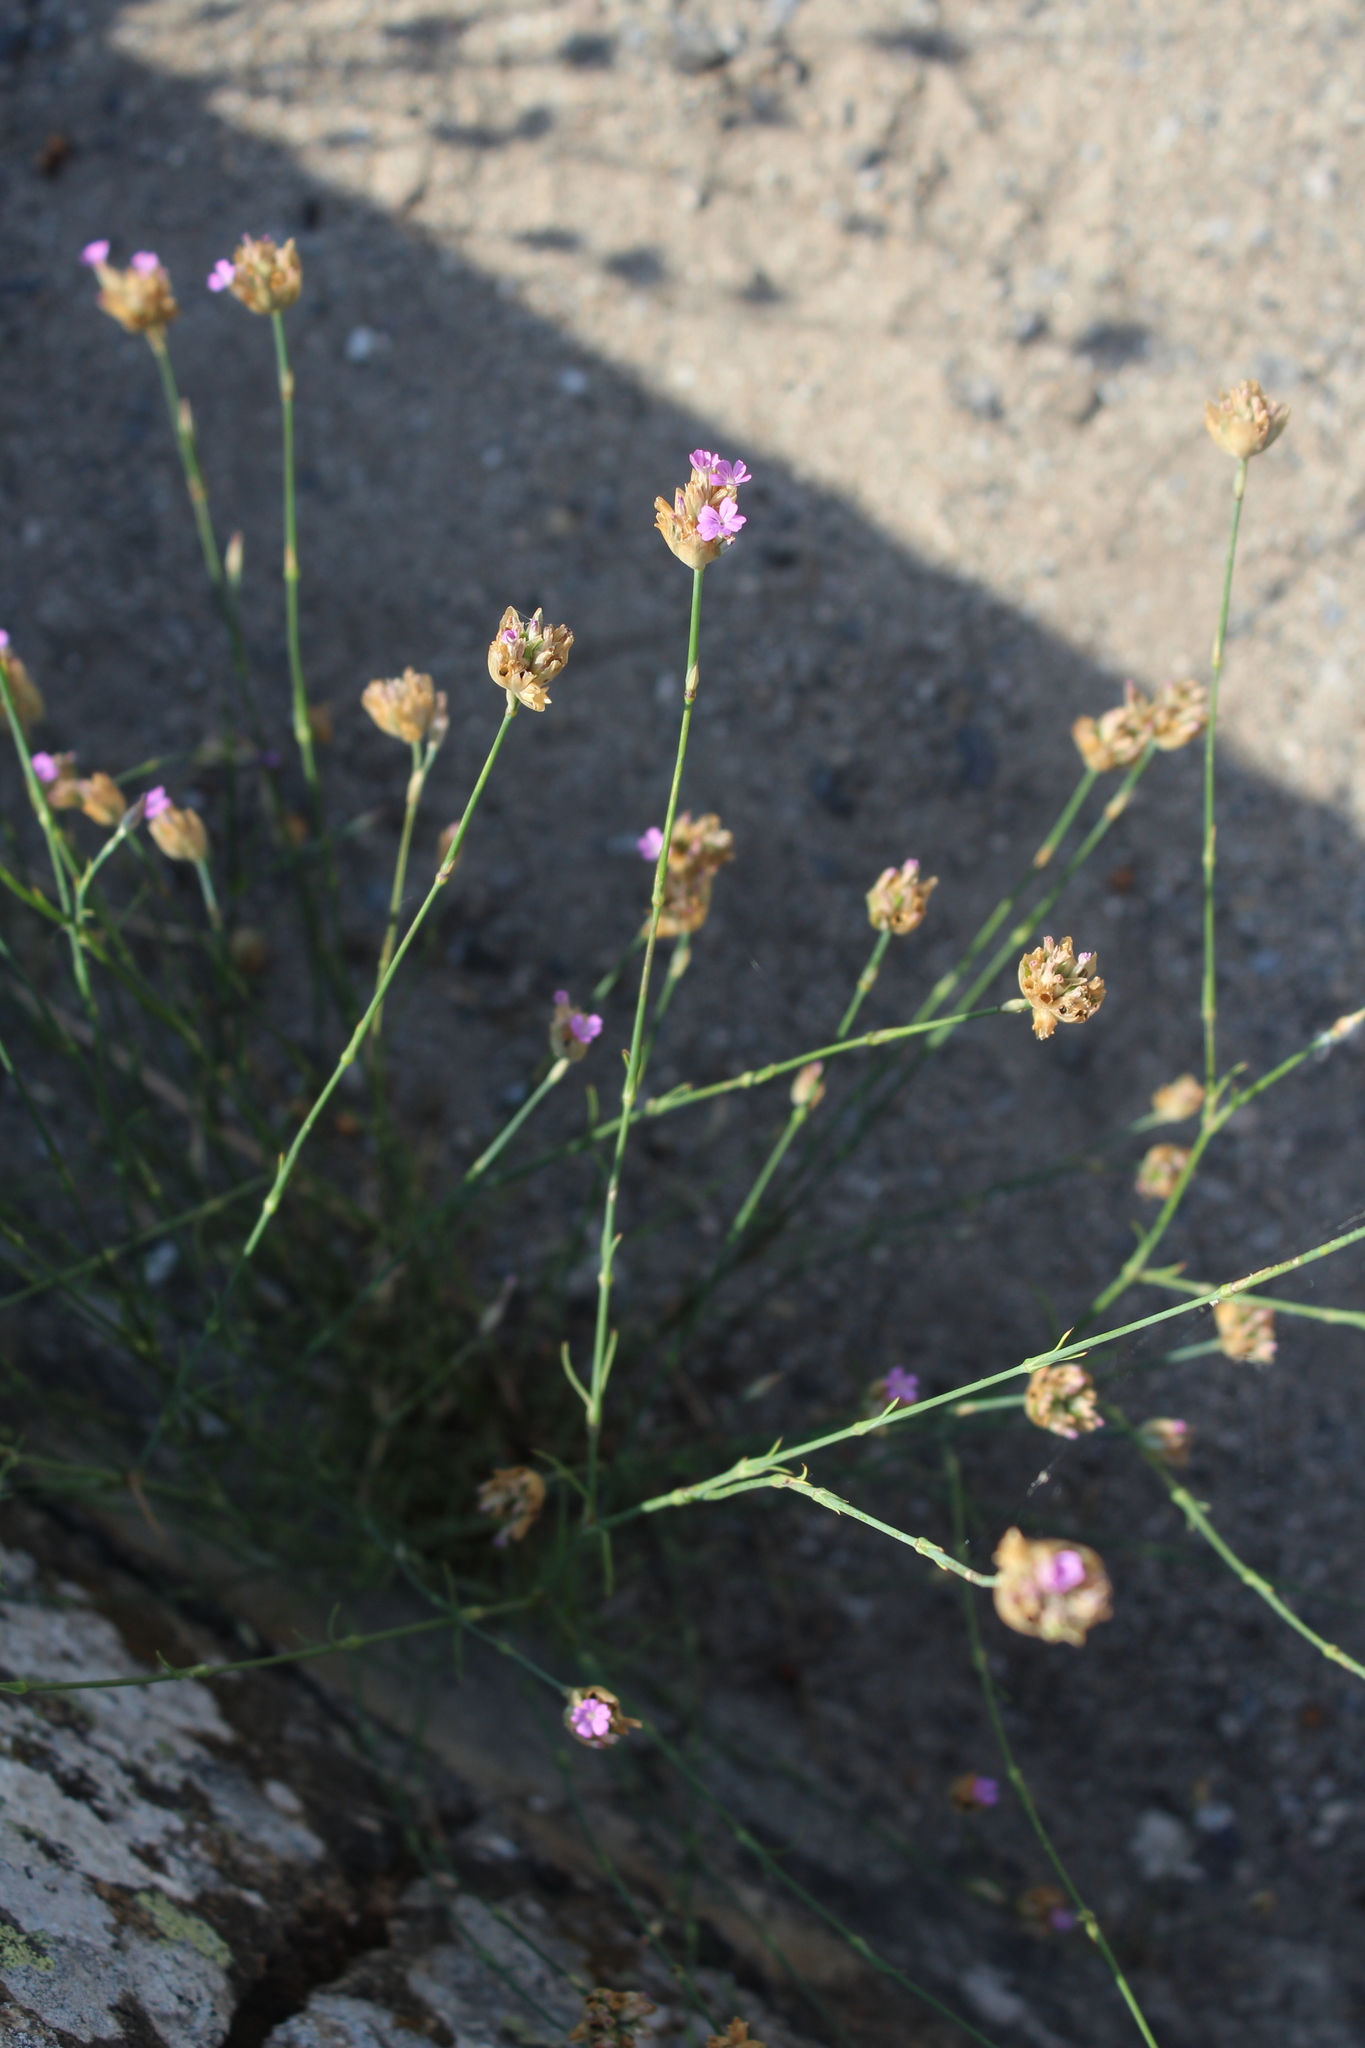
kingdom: Plantae
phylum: Tracheophyta
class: Magnoliopsida
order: Caryophyllales
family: Caryophyllaceae
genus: Petrorhagia
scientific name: Petrorhagia prolifera
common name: Proliferous pink
